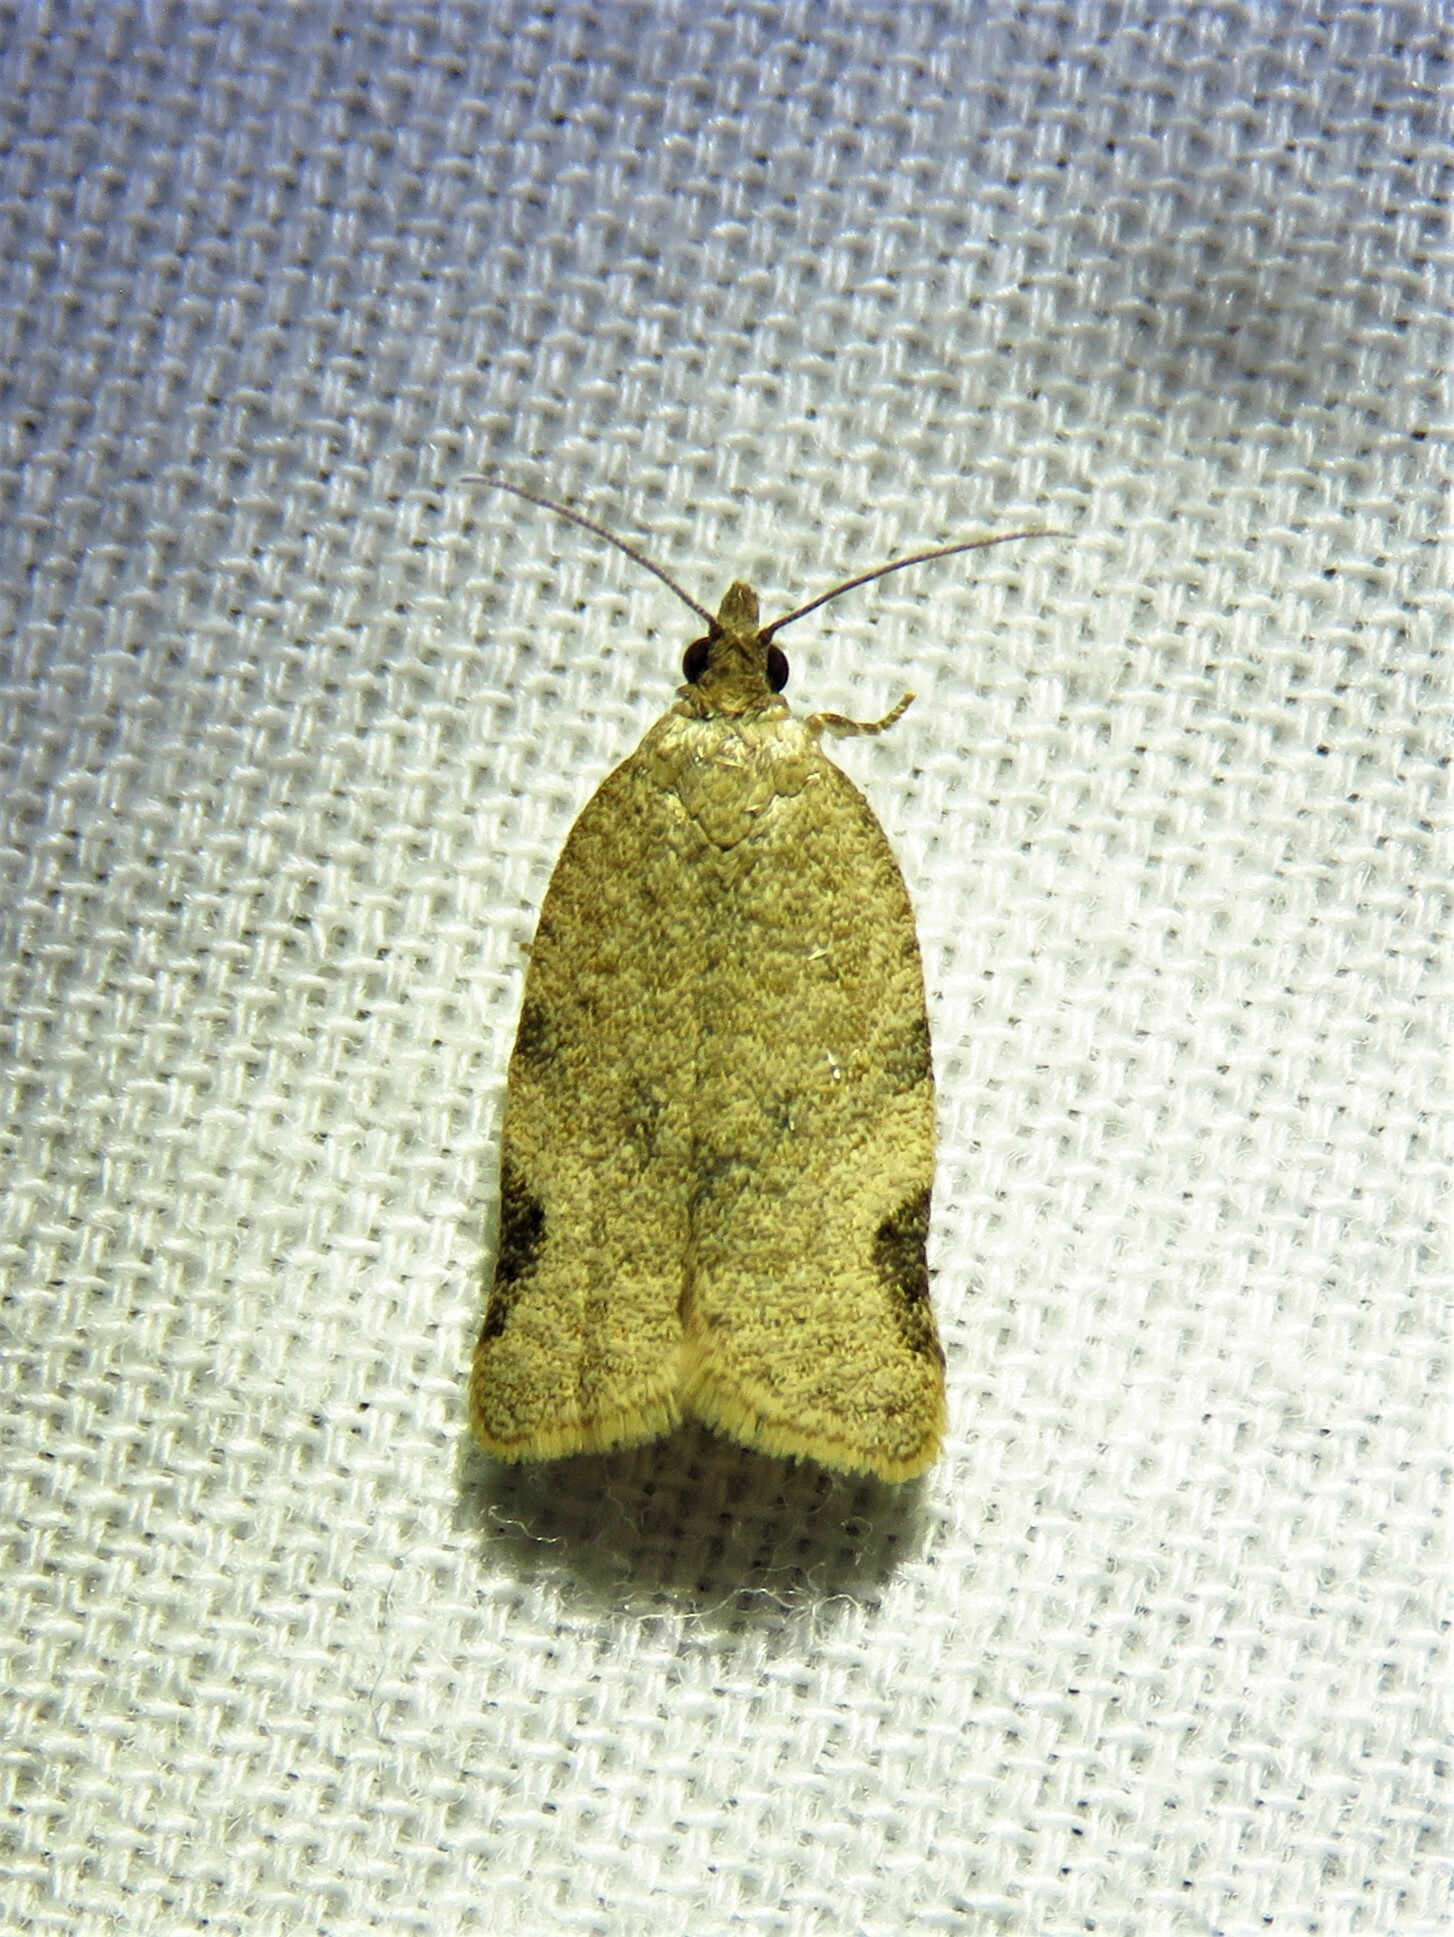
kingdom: Animalia
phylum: Arthropoda
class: Insecta
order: Lepidoptera
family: Tortricidae
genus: Clepsis
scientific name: Clepsis virescana
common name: Greenish apple moth
